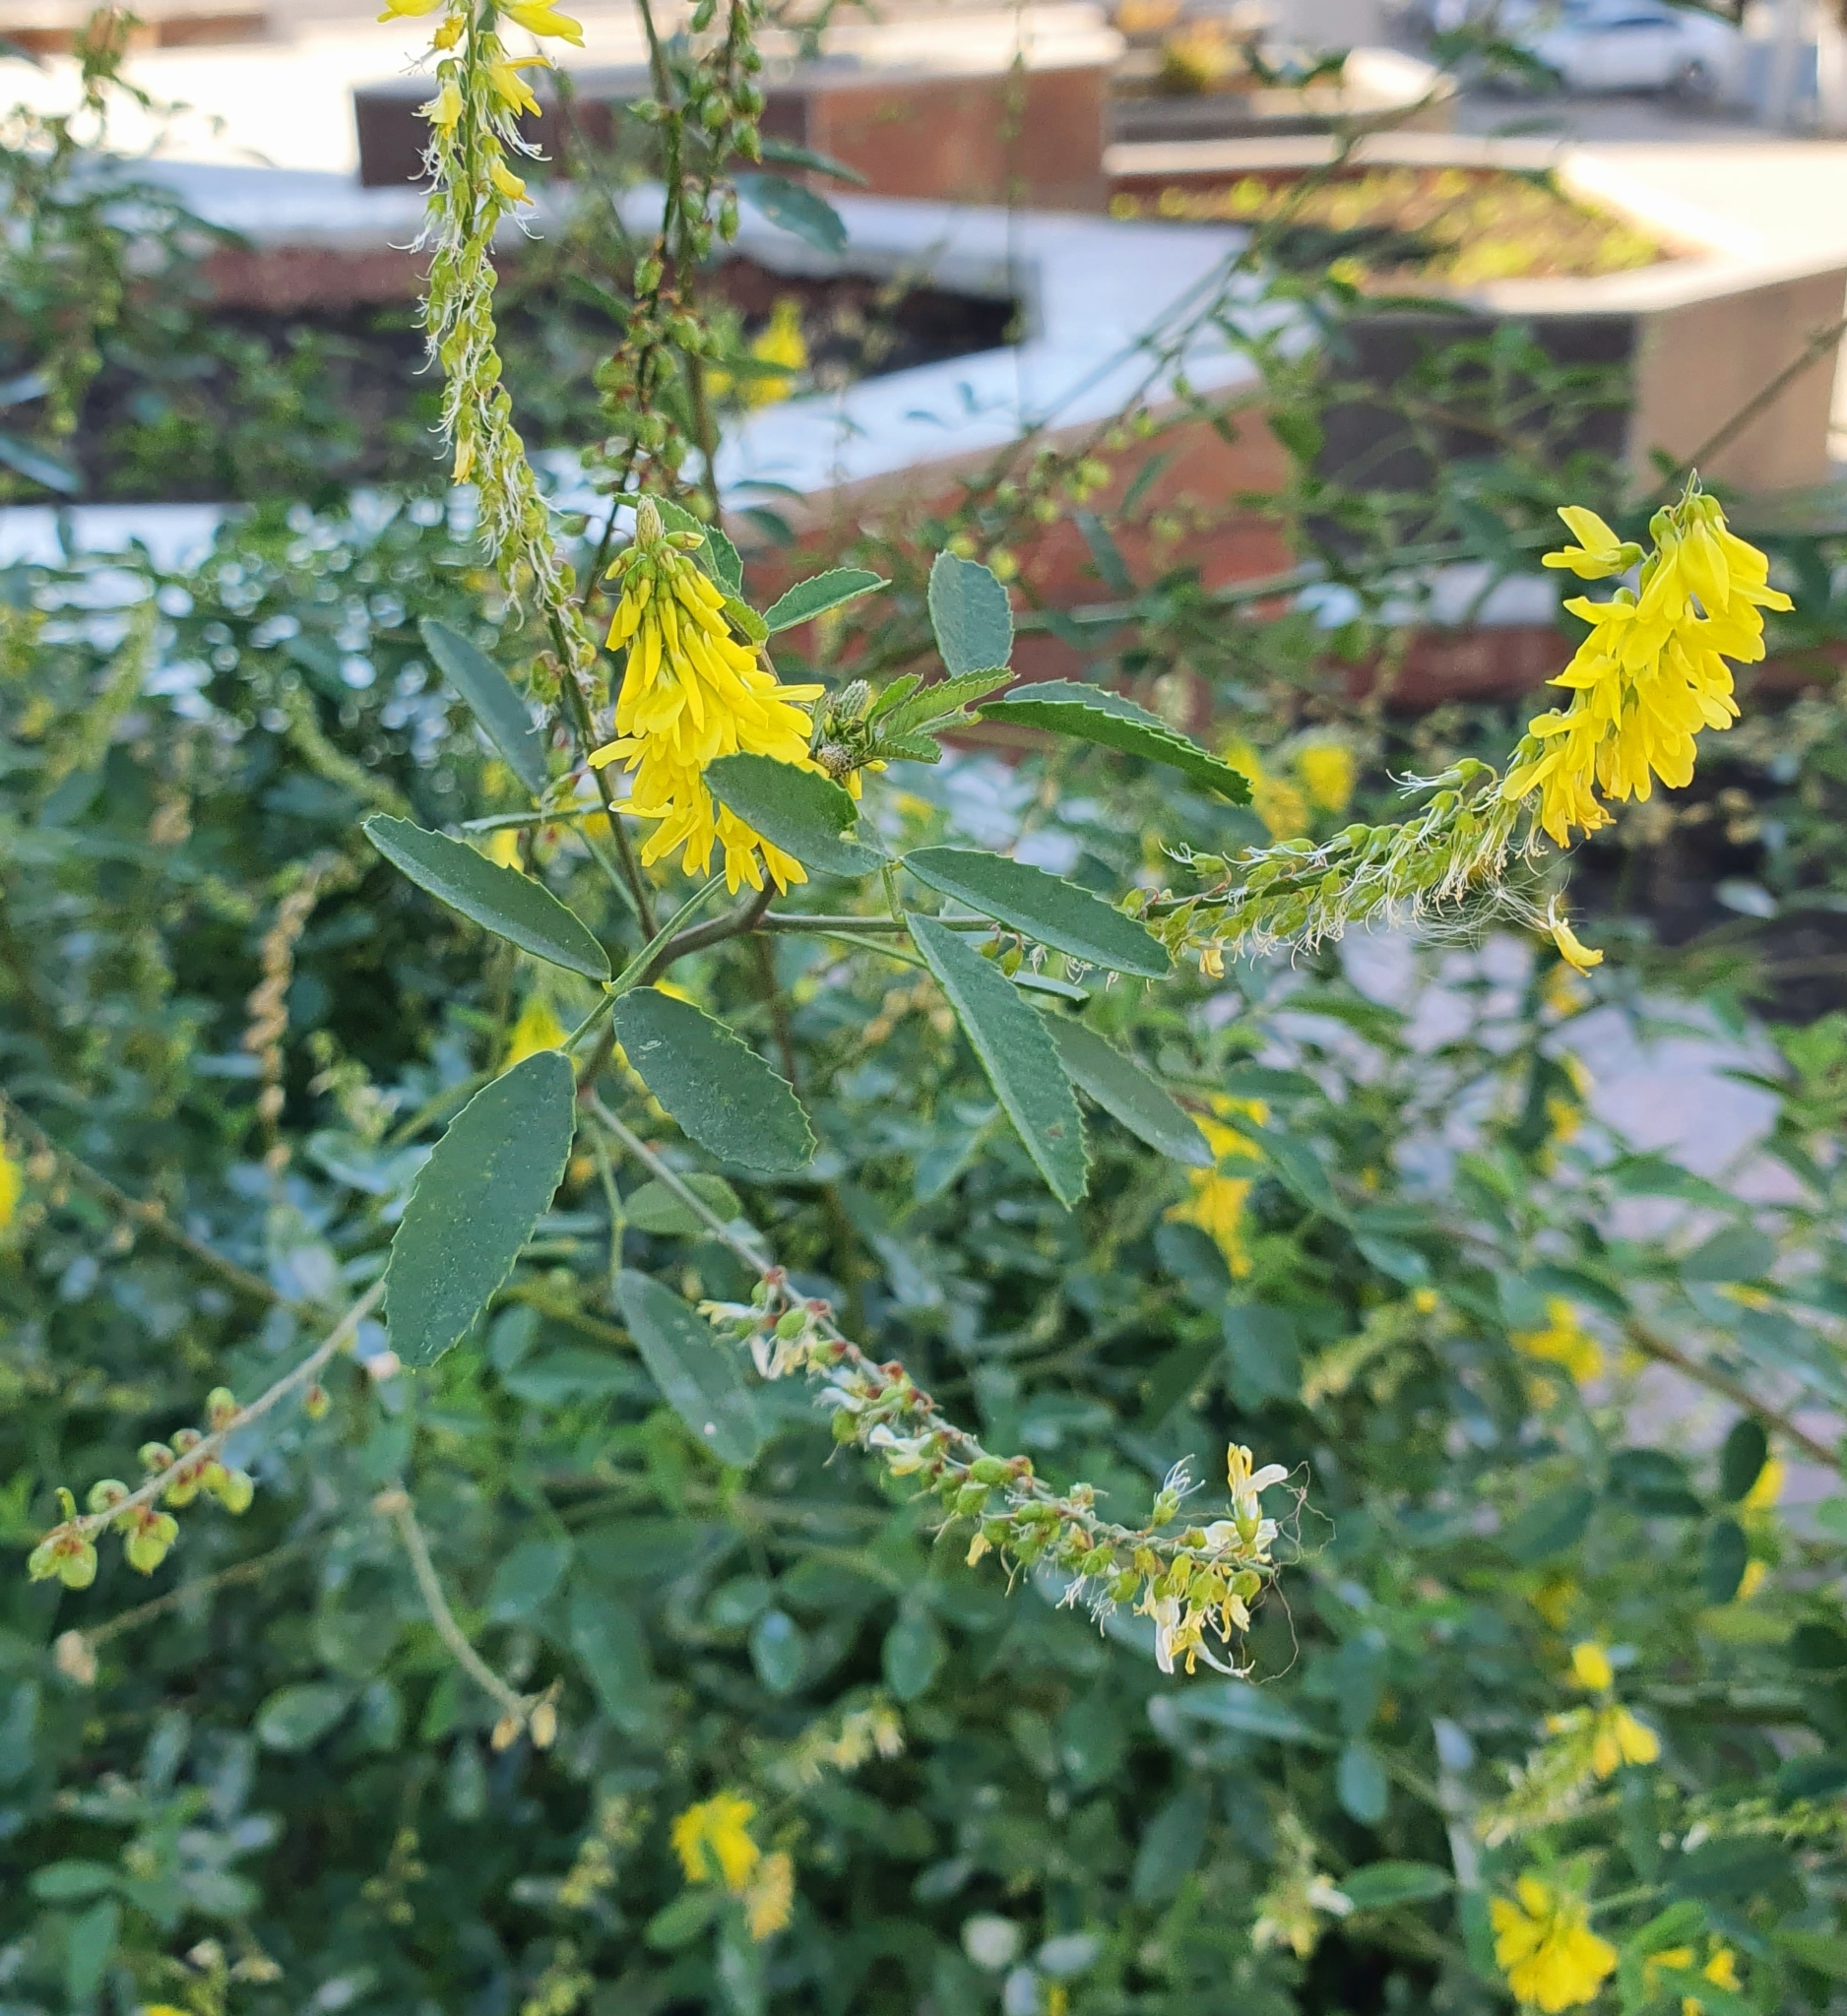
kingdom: Plantae
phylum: Tracheophyta
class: Magnoliopsida
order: Fabales
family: Fabaceae
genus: Melilotus
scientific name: Melilotus officinalis
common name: Sweetclover
